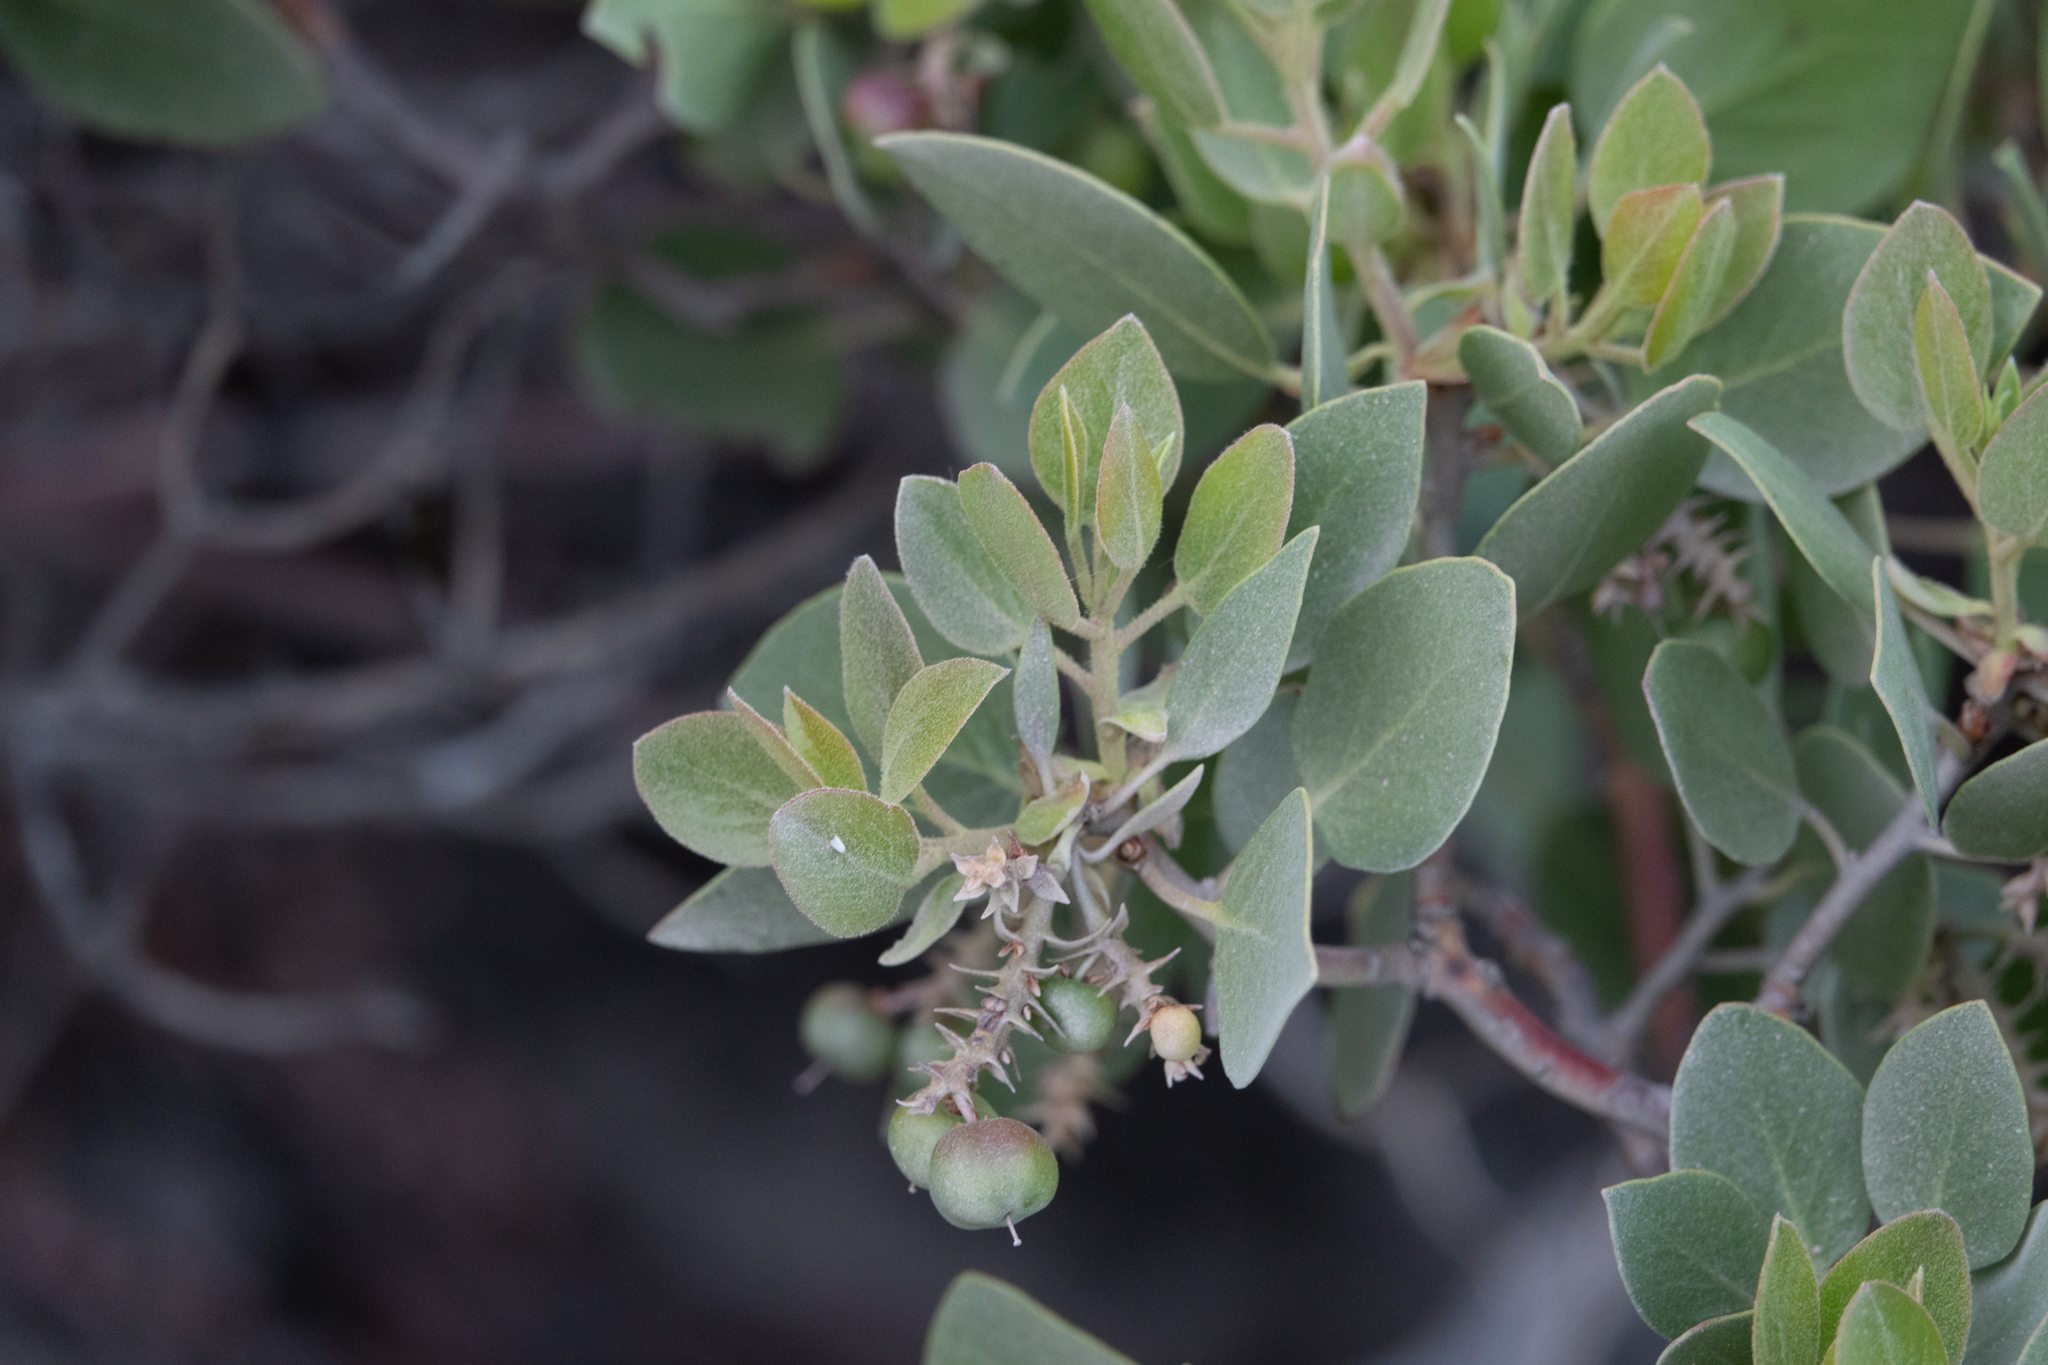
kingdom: Plantae
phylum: Tracheophyta
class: Magnoliopsida
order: Ericales
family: Ericaceae
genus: Arctostaphylos
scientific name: Arctostaphylos canescens
